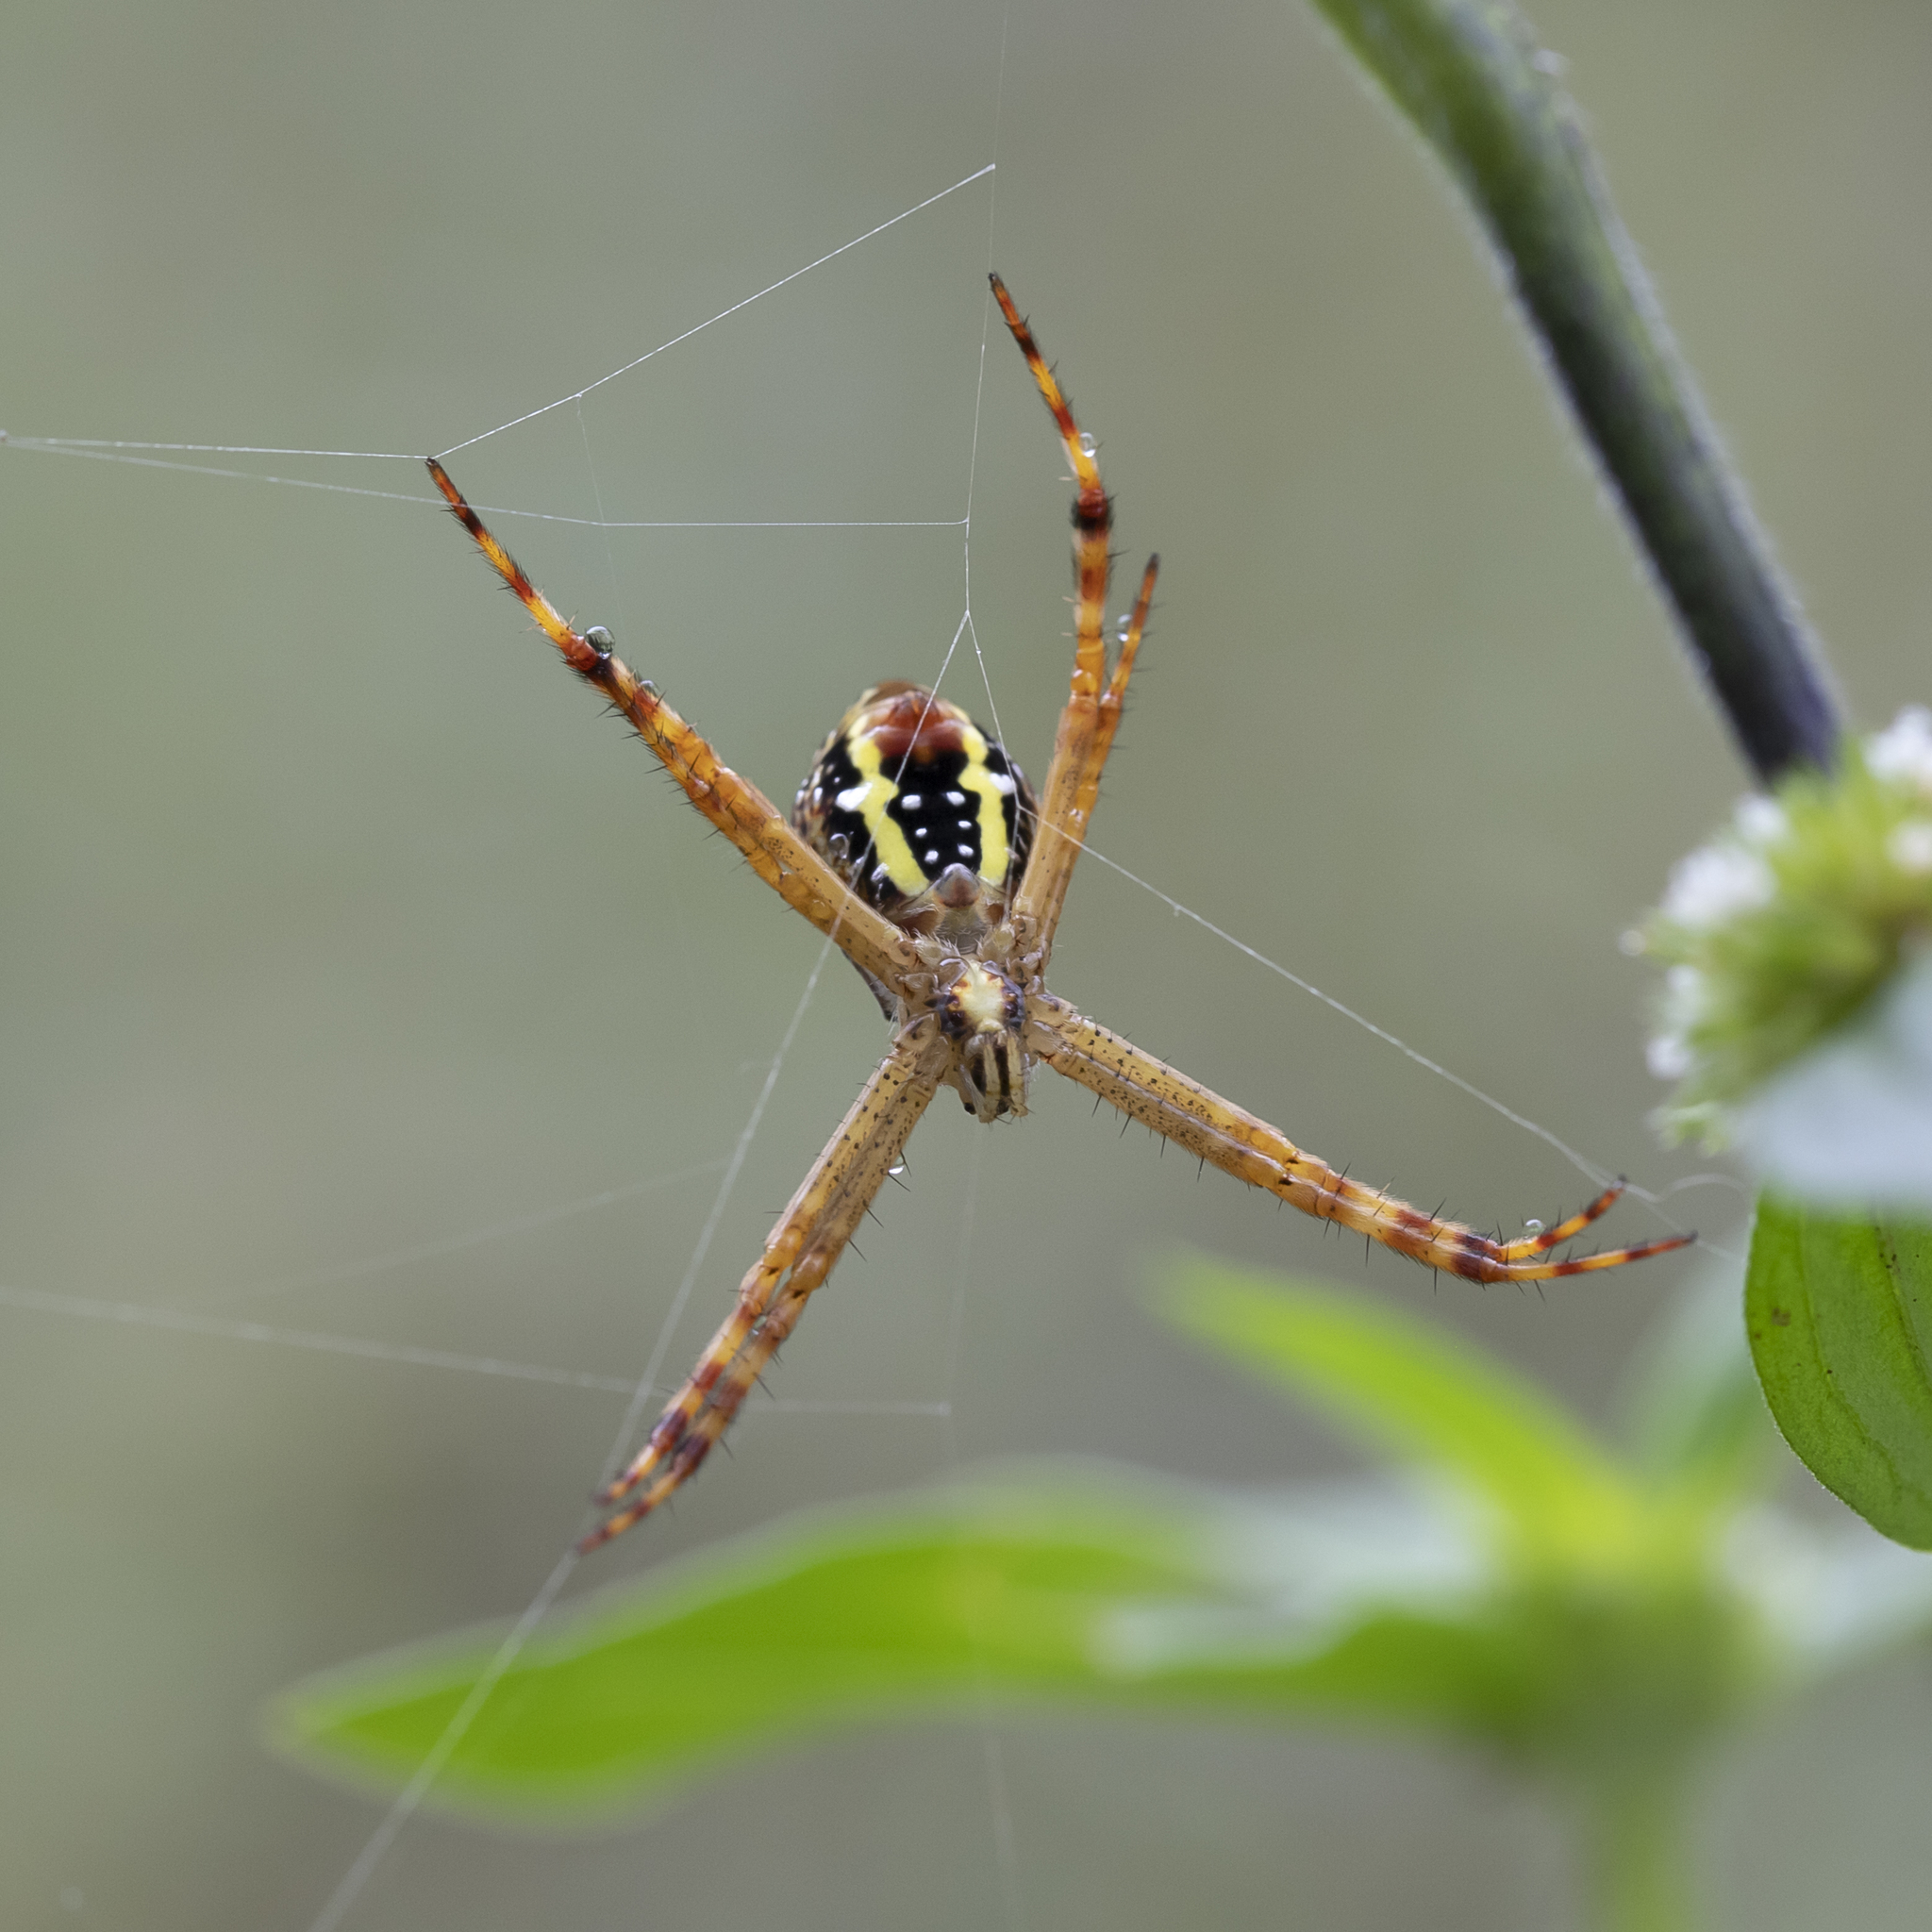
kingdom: Animalia
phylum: Arthropoda
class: Arachnida
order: Araneae
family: Araneidae
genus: Argiope
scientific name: Argiope picta
